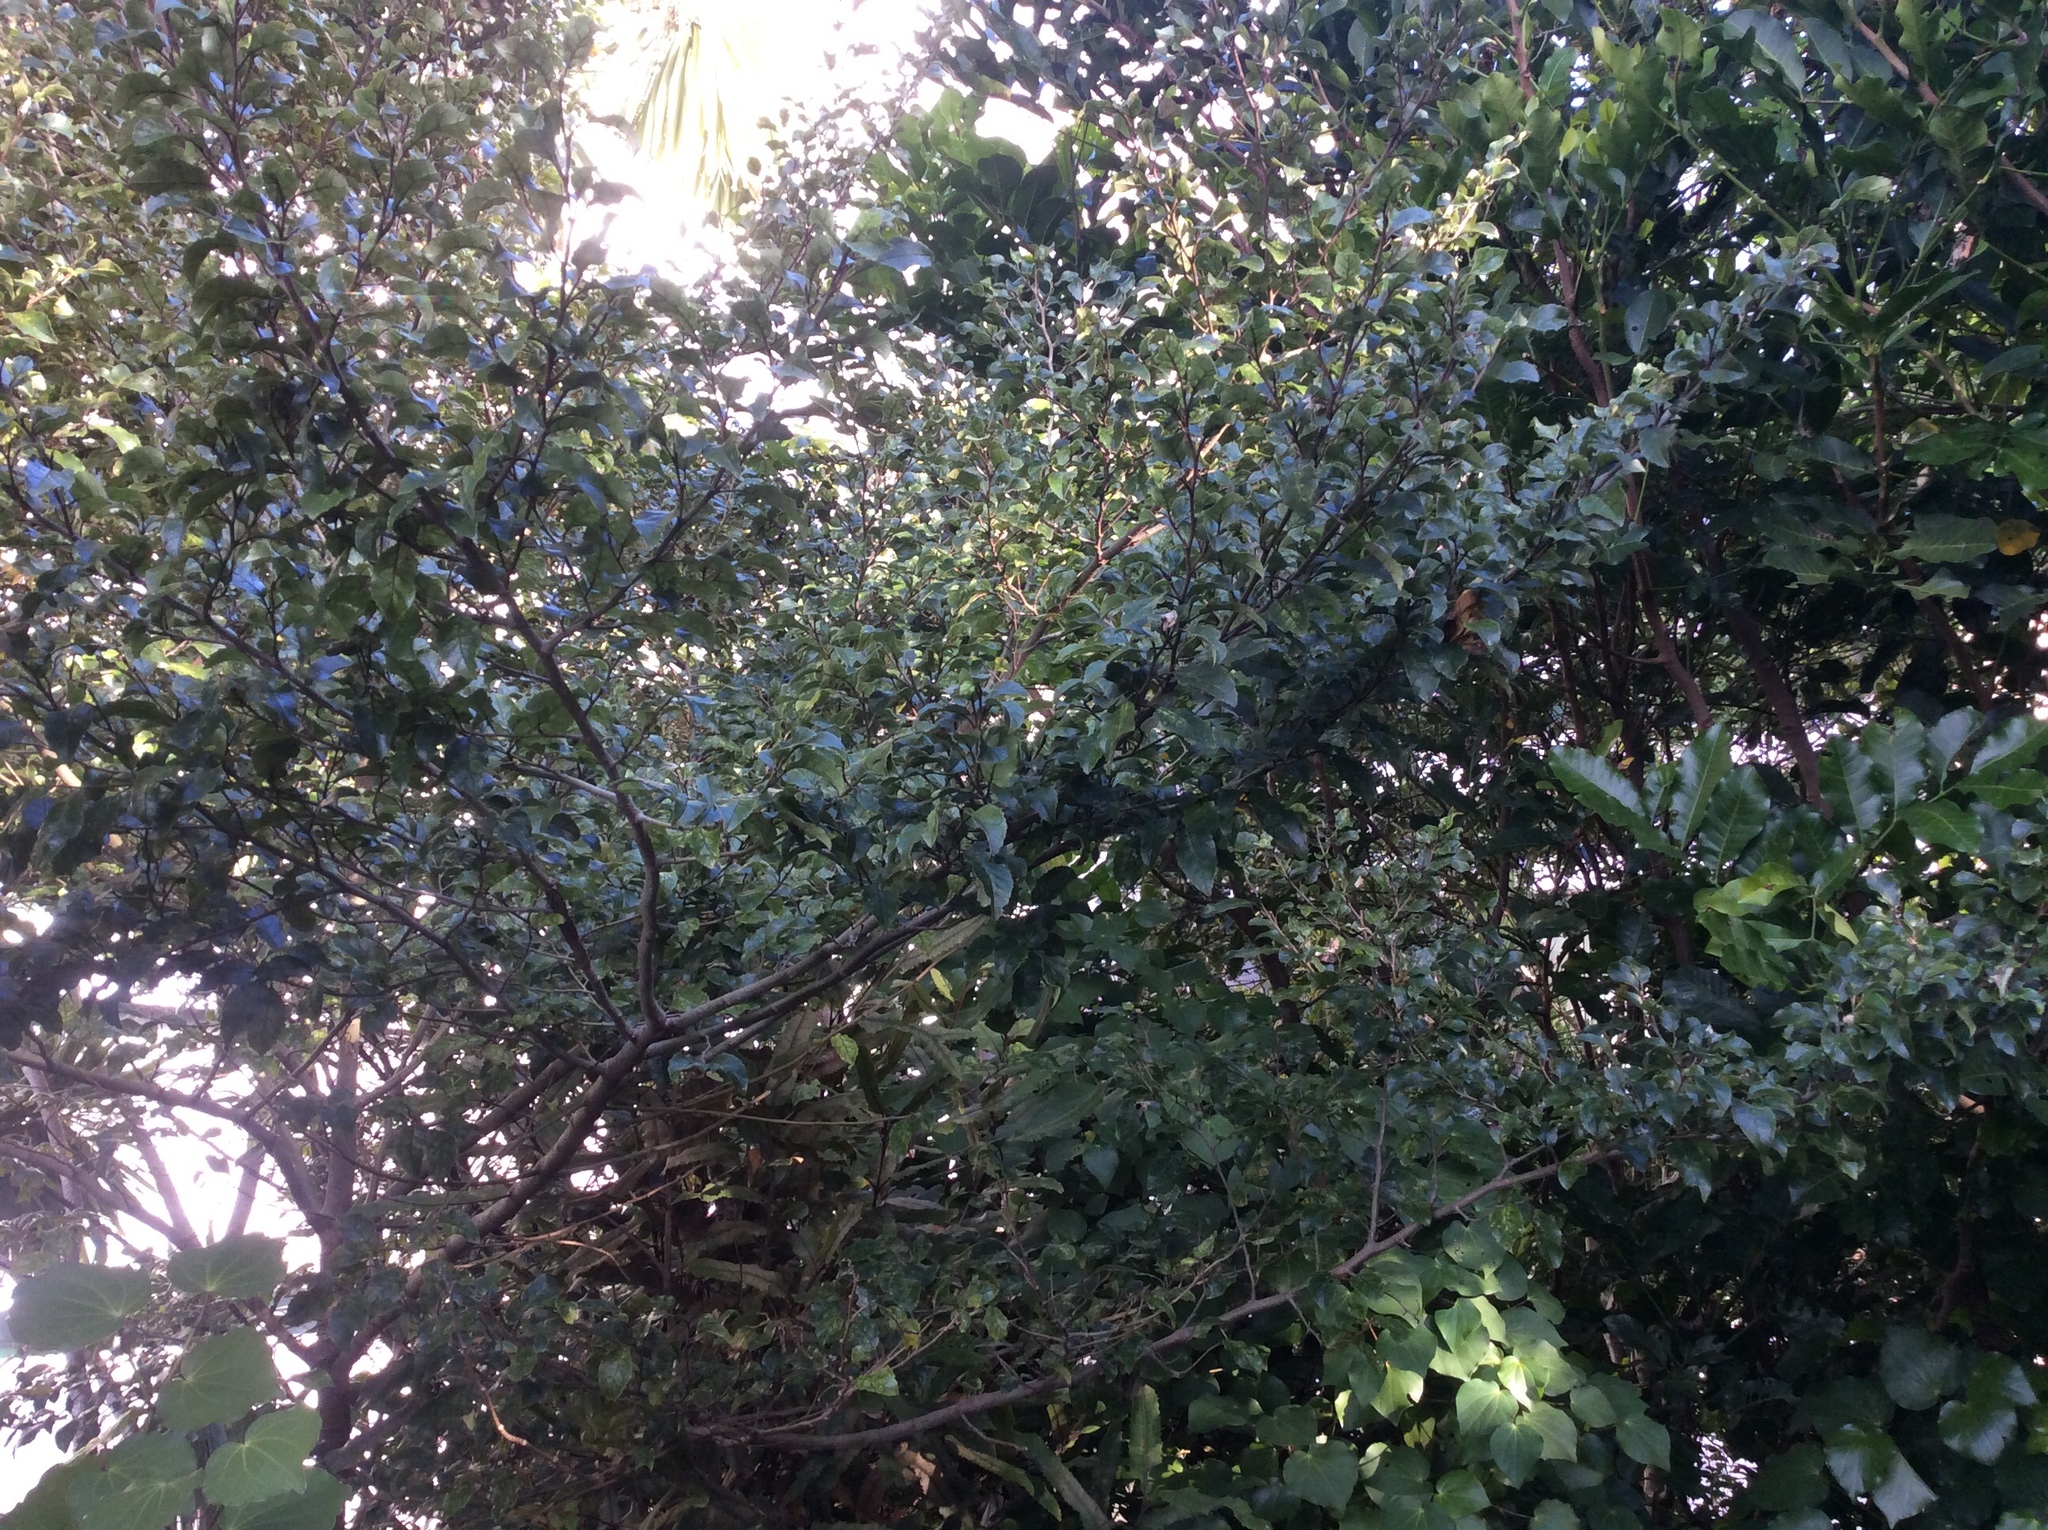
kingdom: Plantae
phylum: Tracheophyta
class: Magnoliopsida
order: Asterales
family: Rousseaceae
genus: Carpodetus
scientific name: Carpodetus serratus
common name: White mapau
